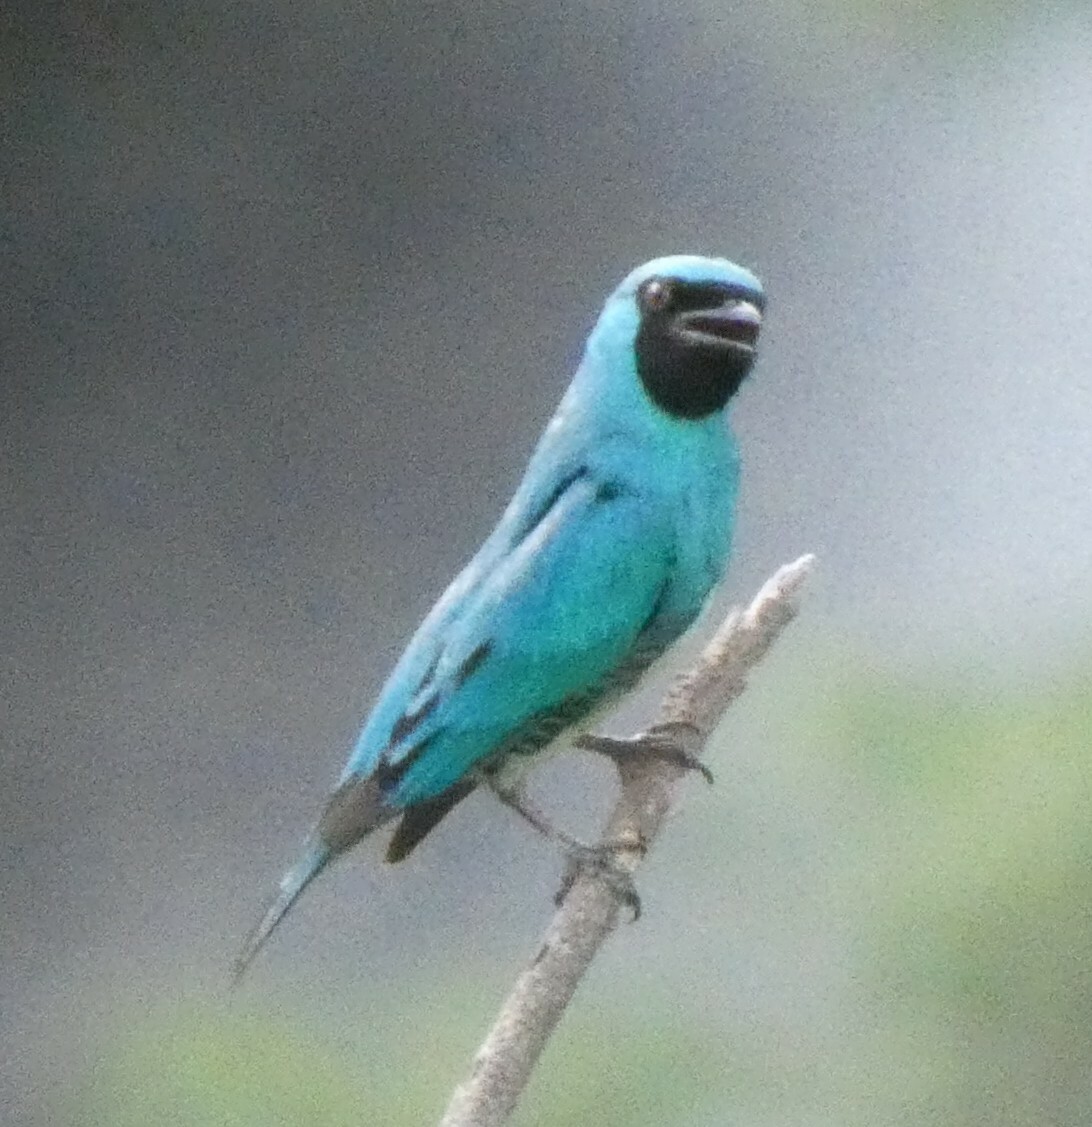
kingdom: Animalia
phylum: Chordata
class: Aves
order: Passeriformes
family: Thraupidae
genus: Tersina
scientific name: Tersina viridis
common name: Swallow tanager
